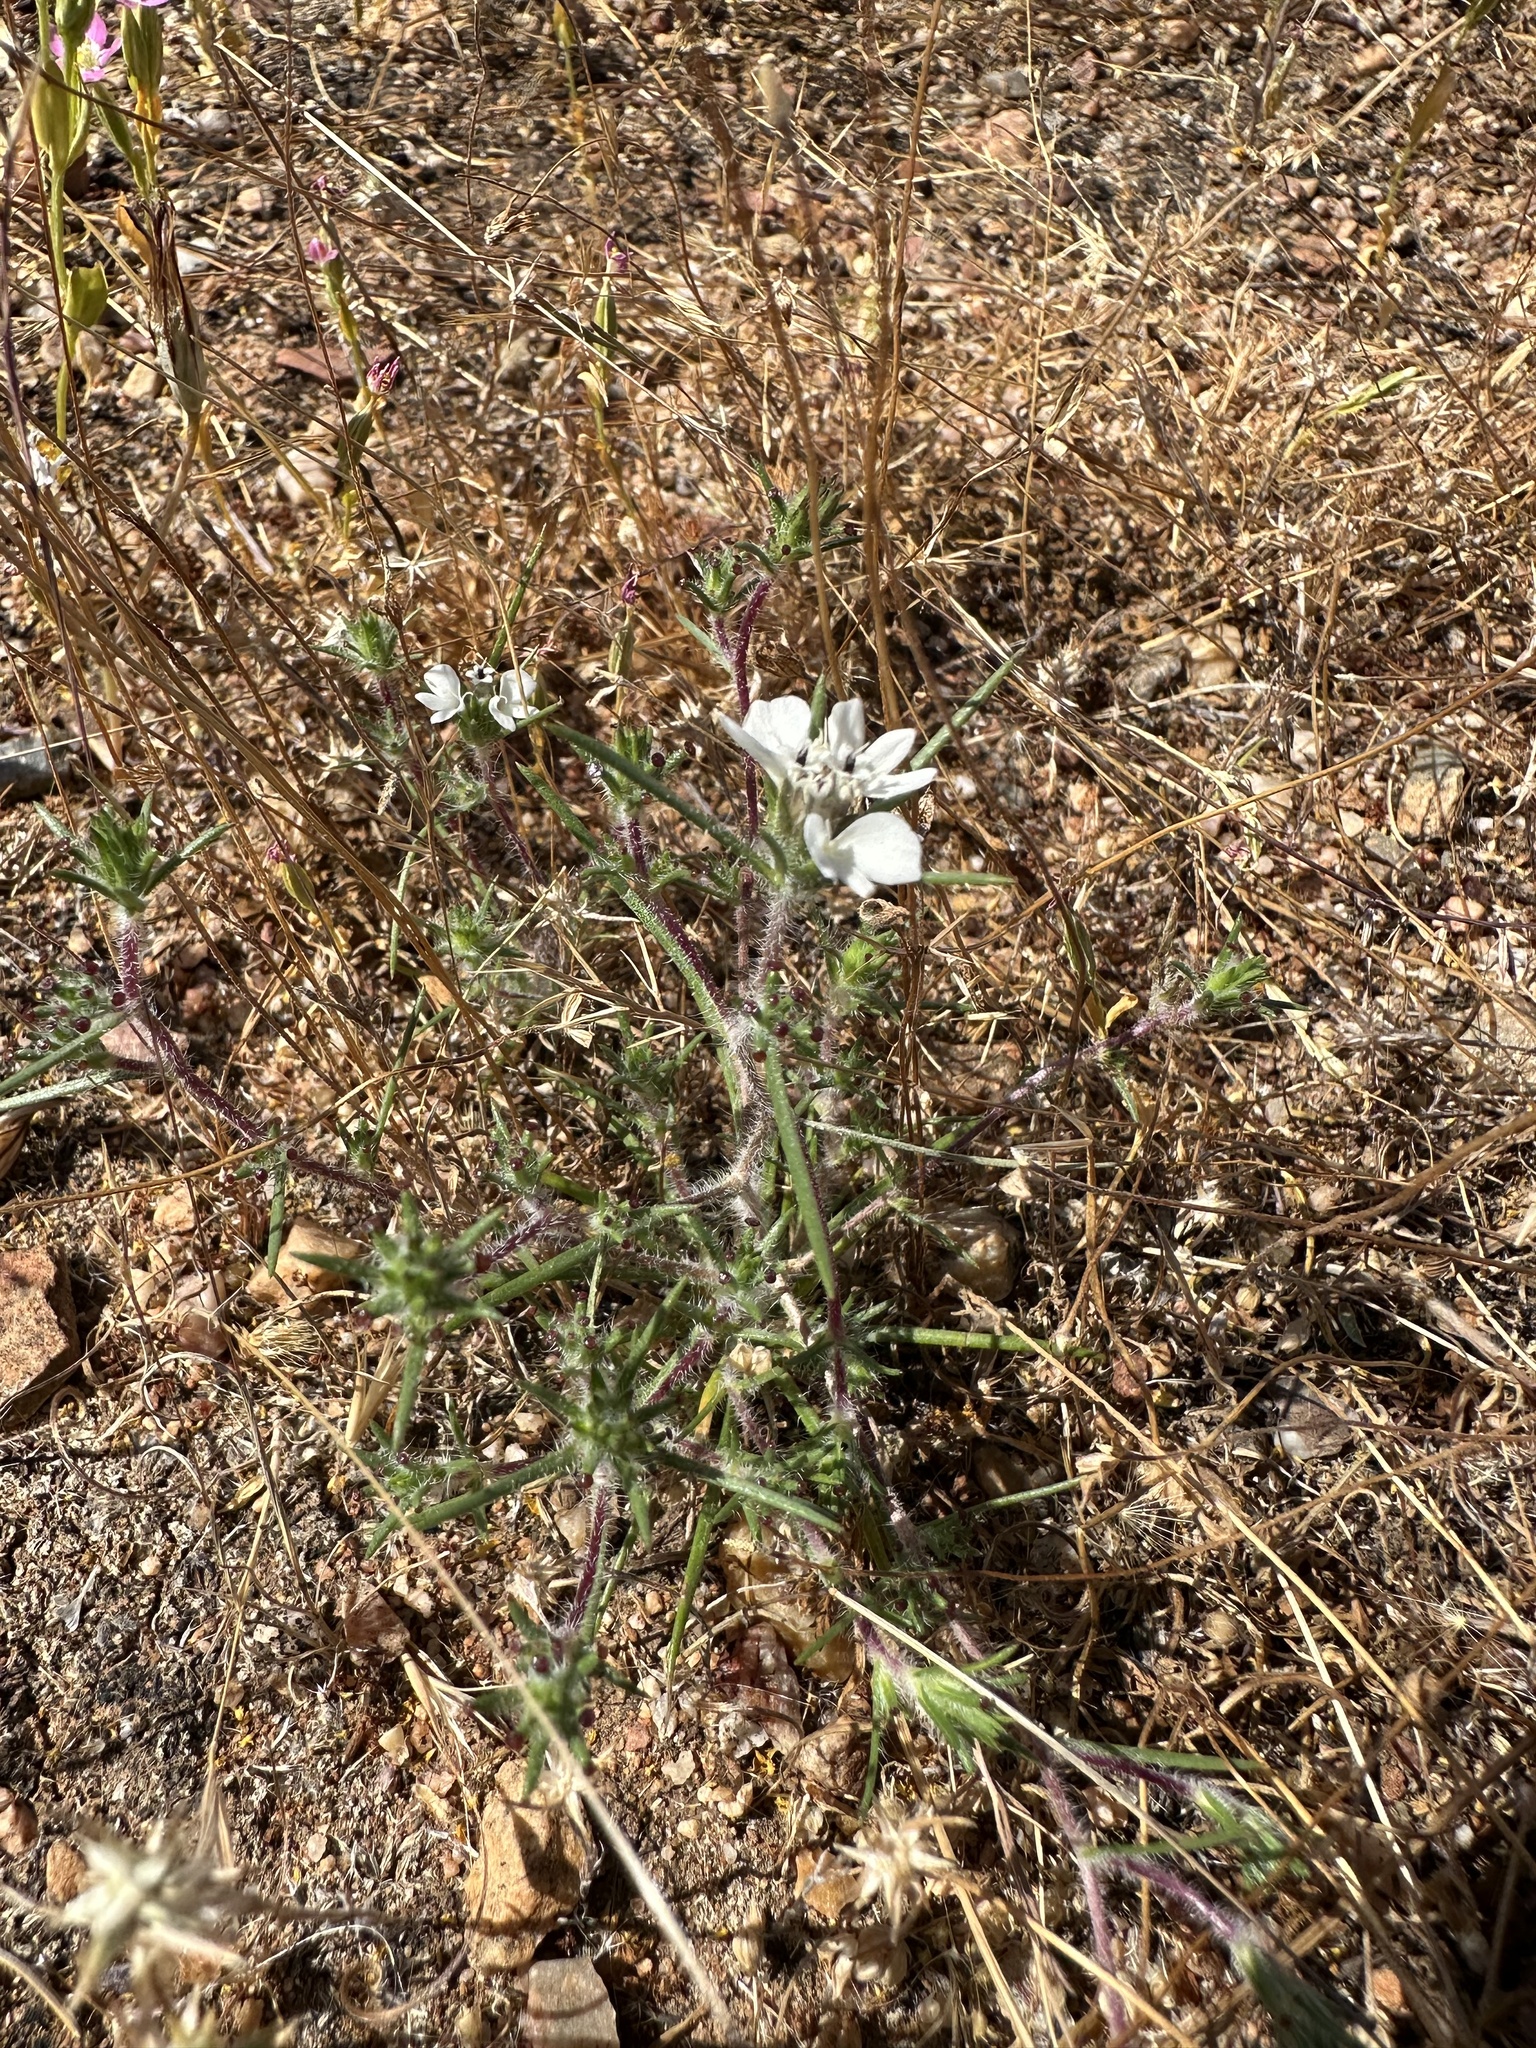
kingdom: Plantae
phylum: Tracheophyta
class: Magnoliopsida
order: Asterales
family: Asteraceae
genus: Calycadenia
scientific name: Calycadenia villosa
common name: Dwarf calycadenia
